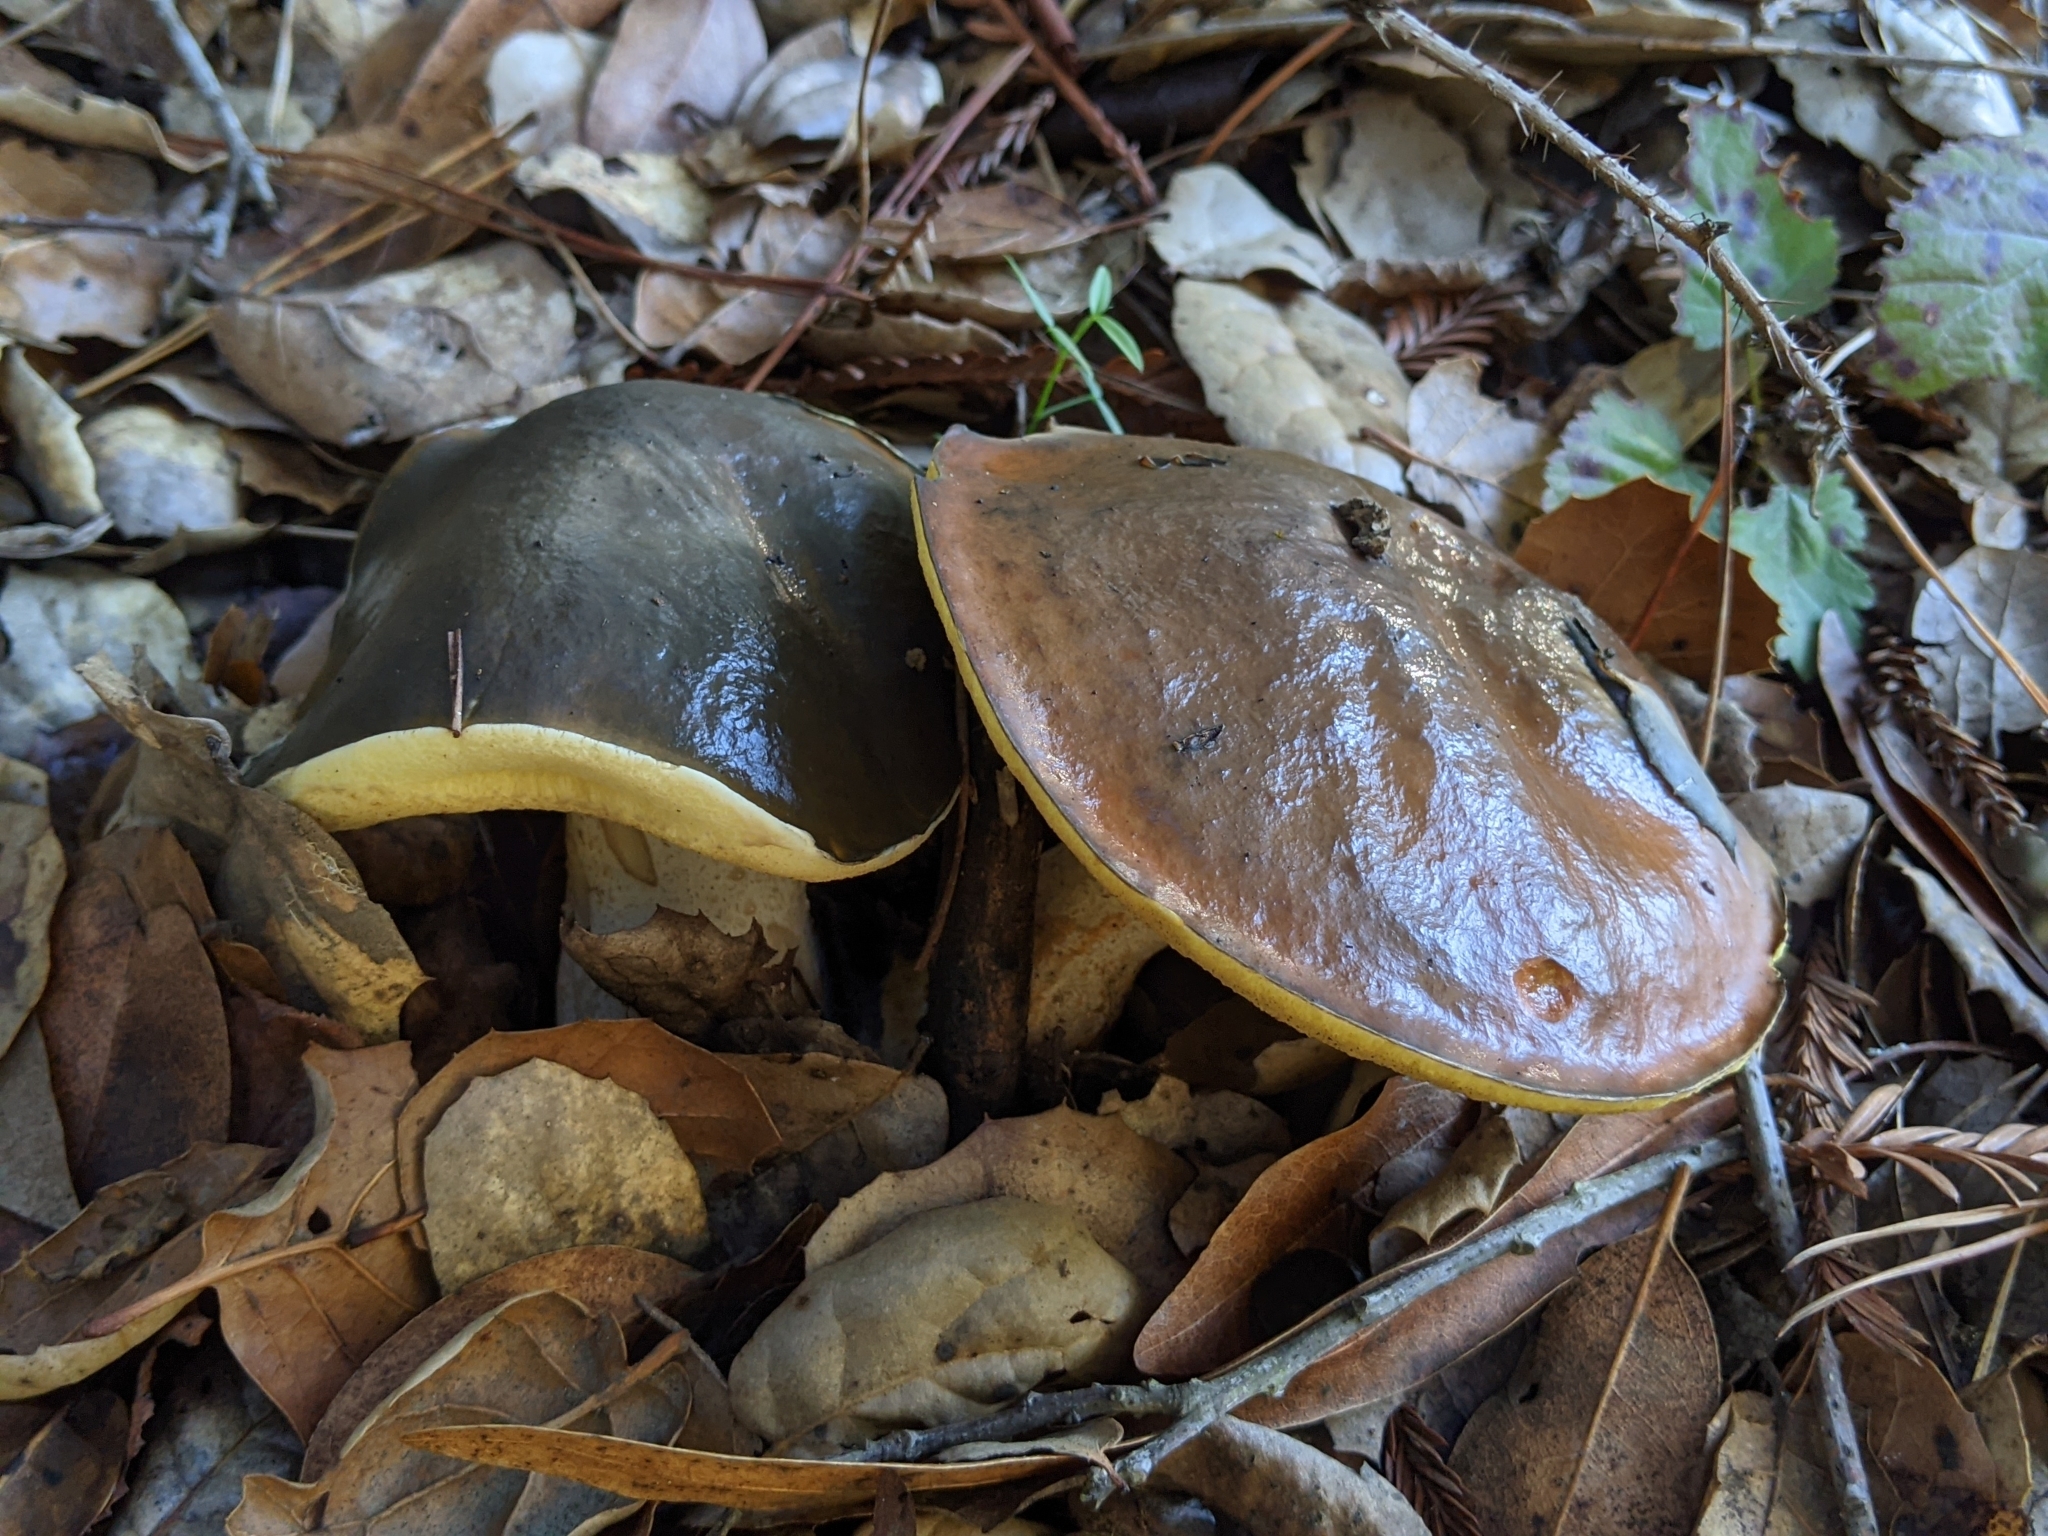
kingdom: Fungi
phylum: Basidiomycota
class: Agaricomycetes
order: Boletales
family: Suillaceae
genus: Suillus
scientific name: Suillus pungens
